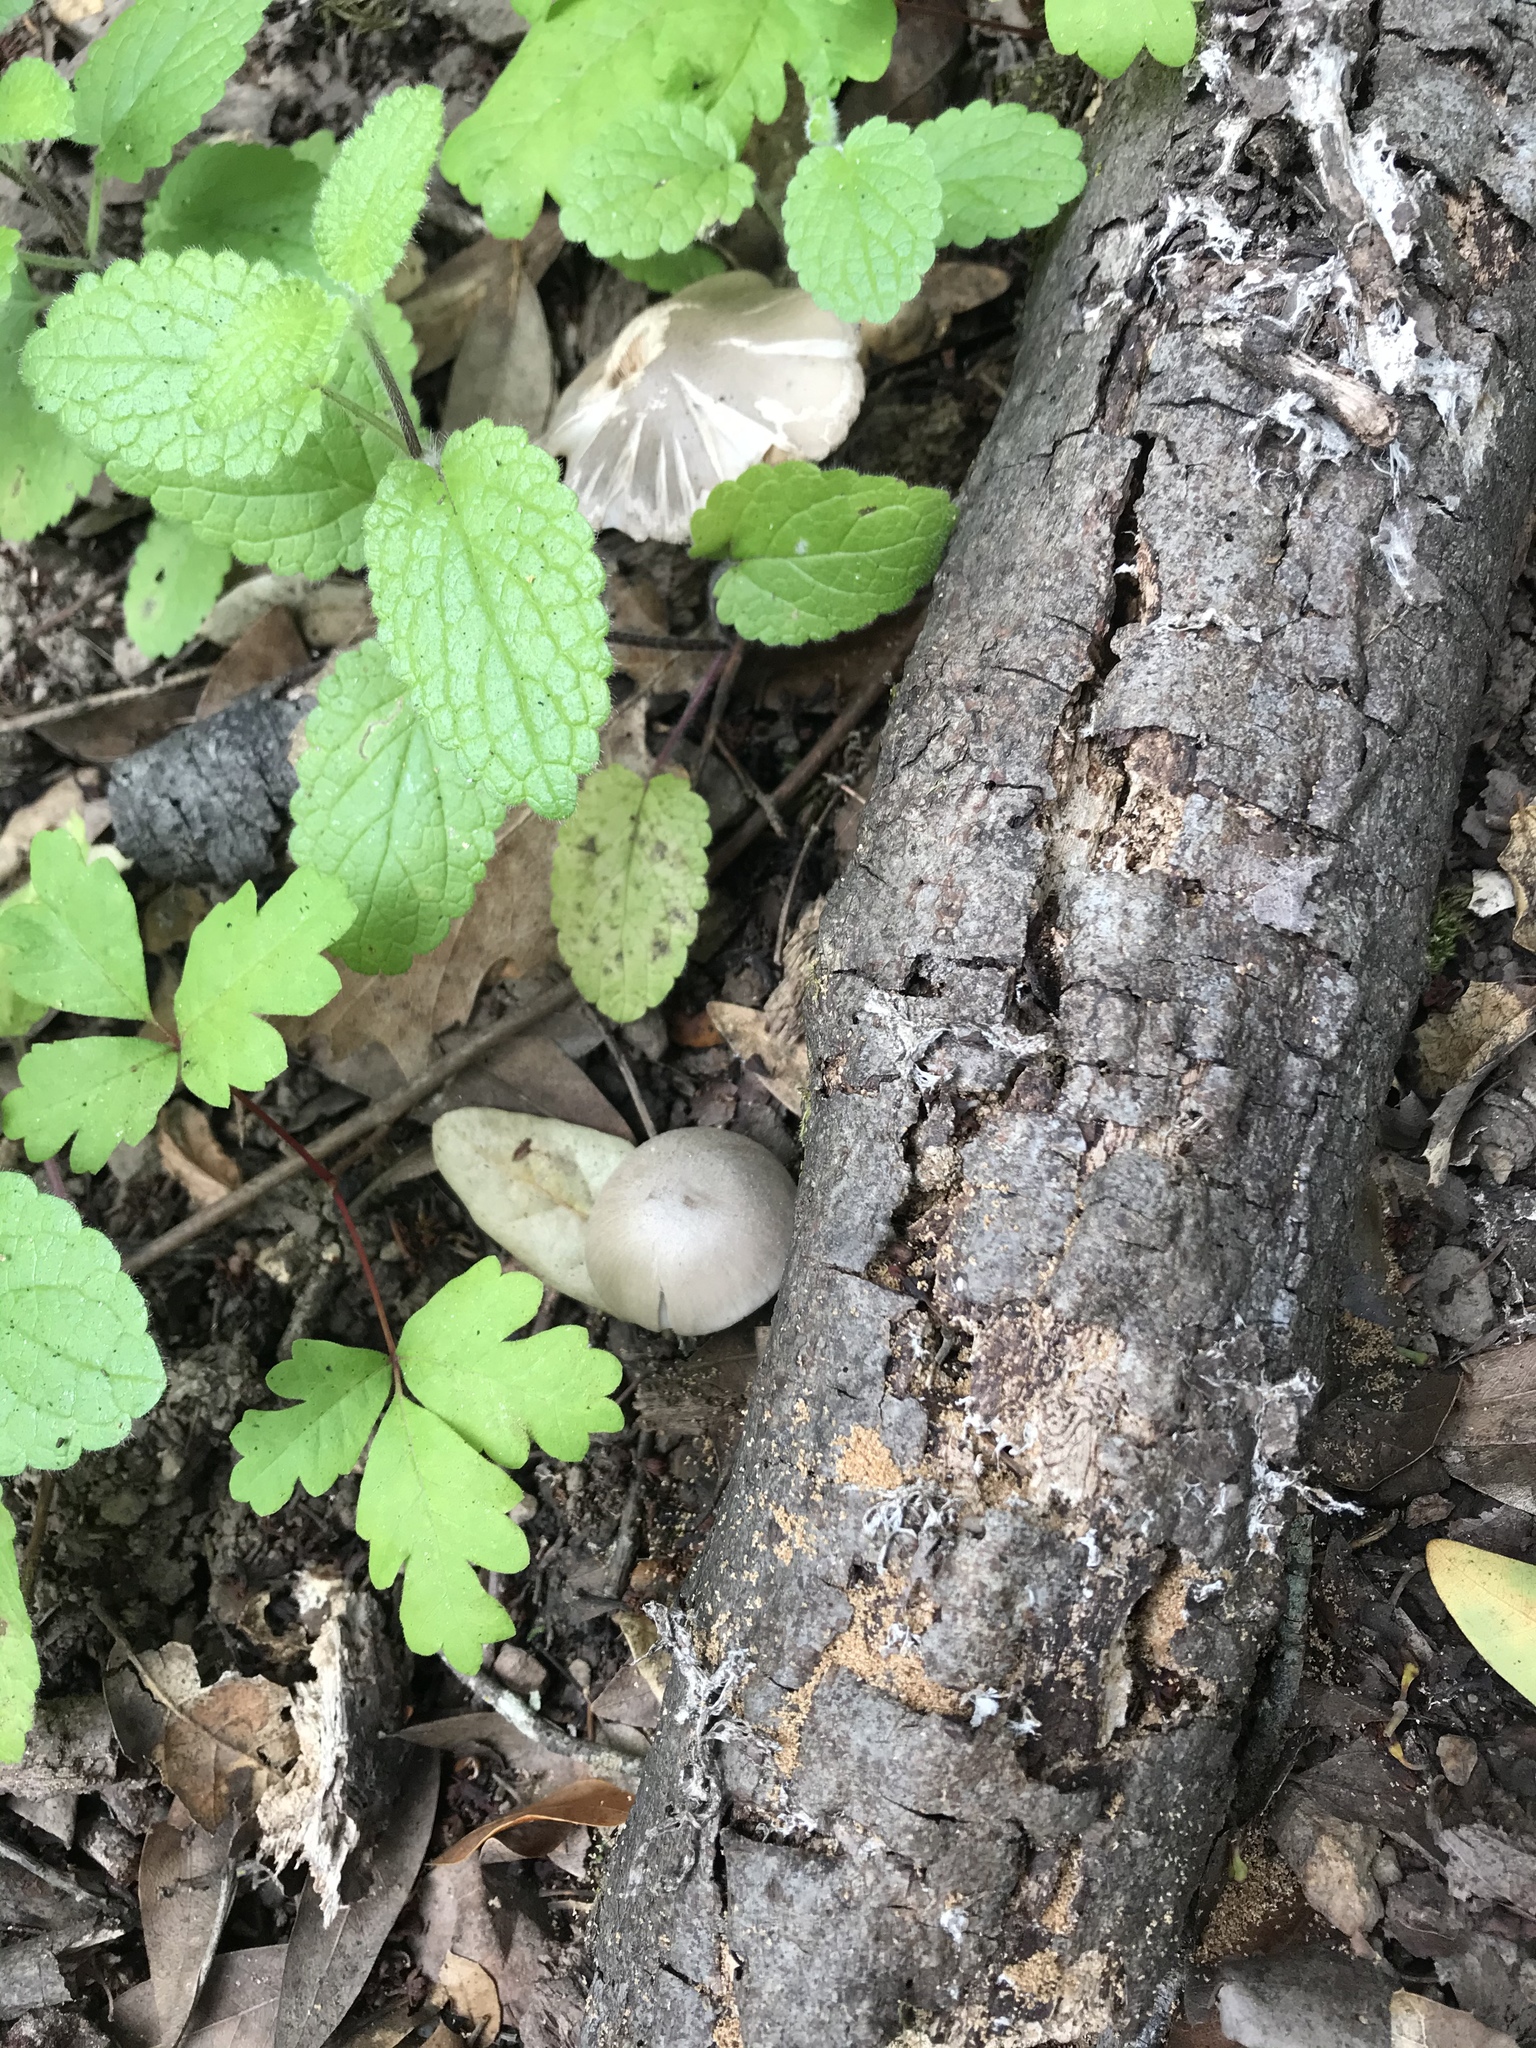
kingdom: Fungi
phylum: Basidiomycota
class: Agaricomycetes
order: Agaricales
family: Psathyrellaceae
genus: Psathyrella
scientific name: Psathyrella uliginicola
